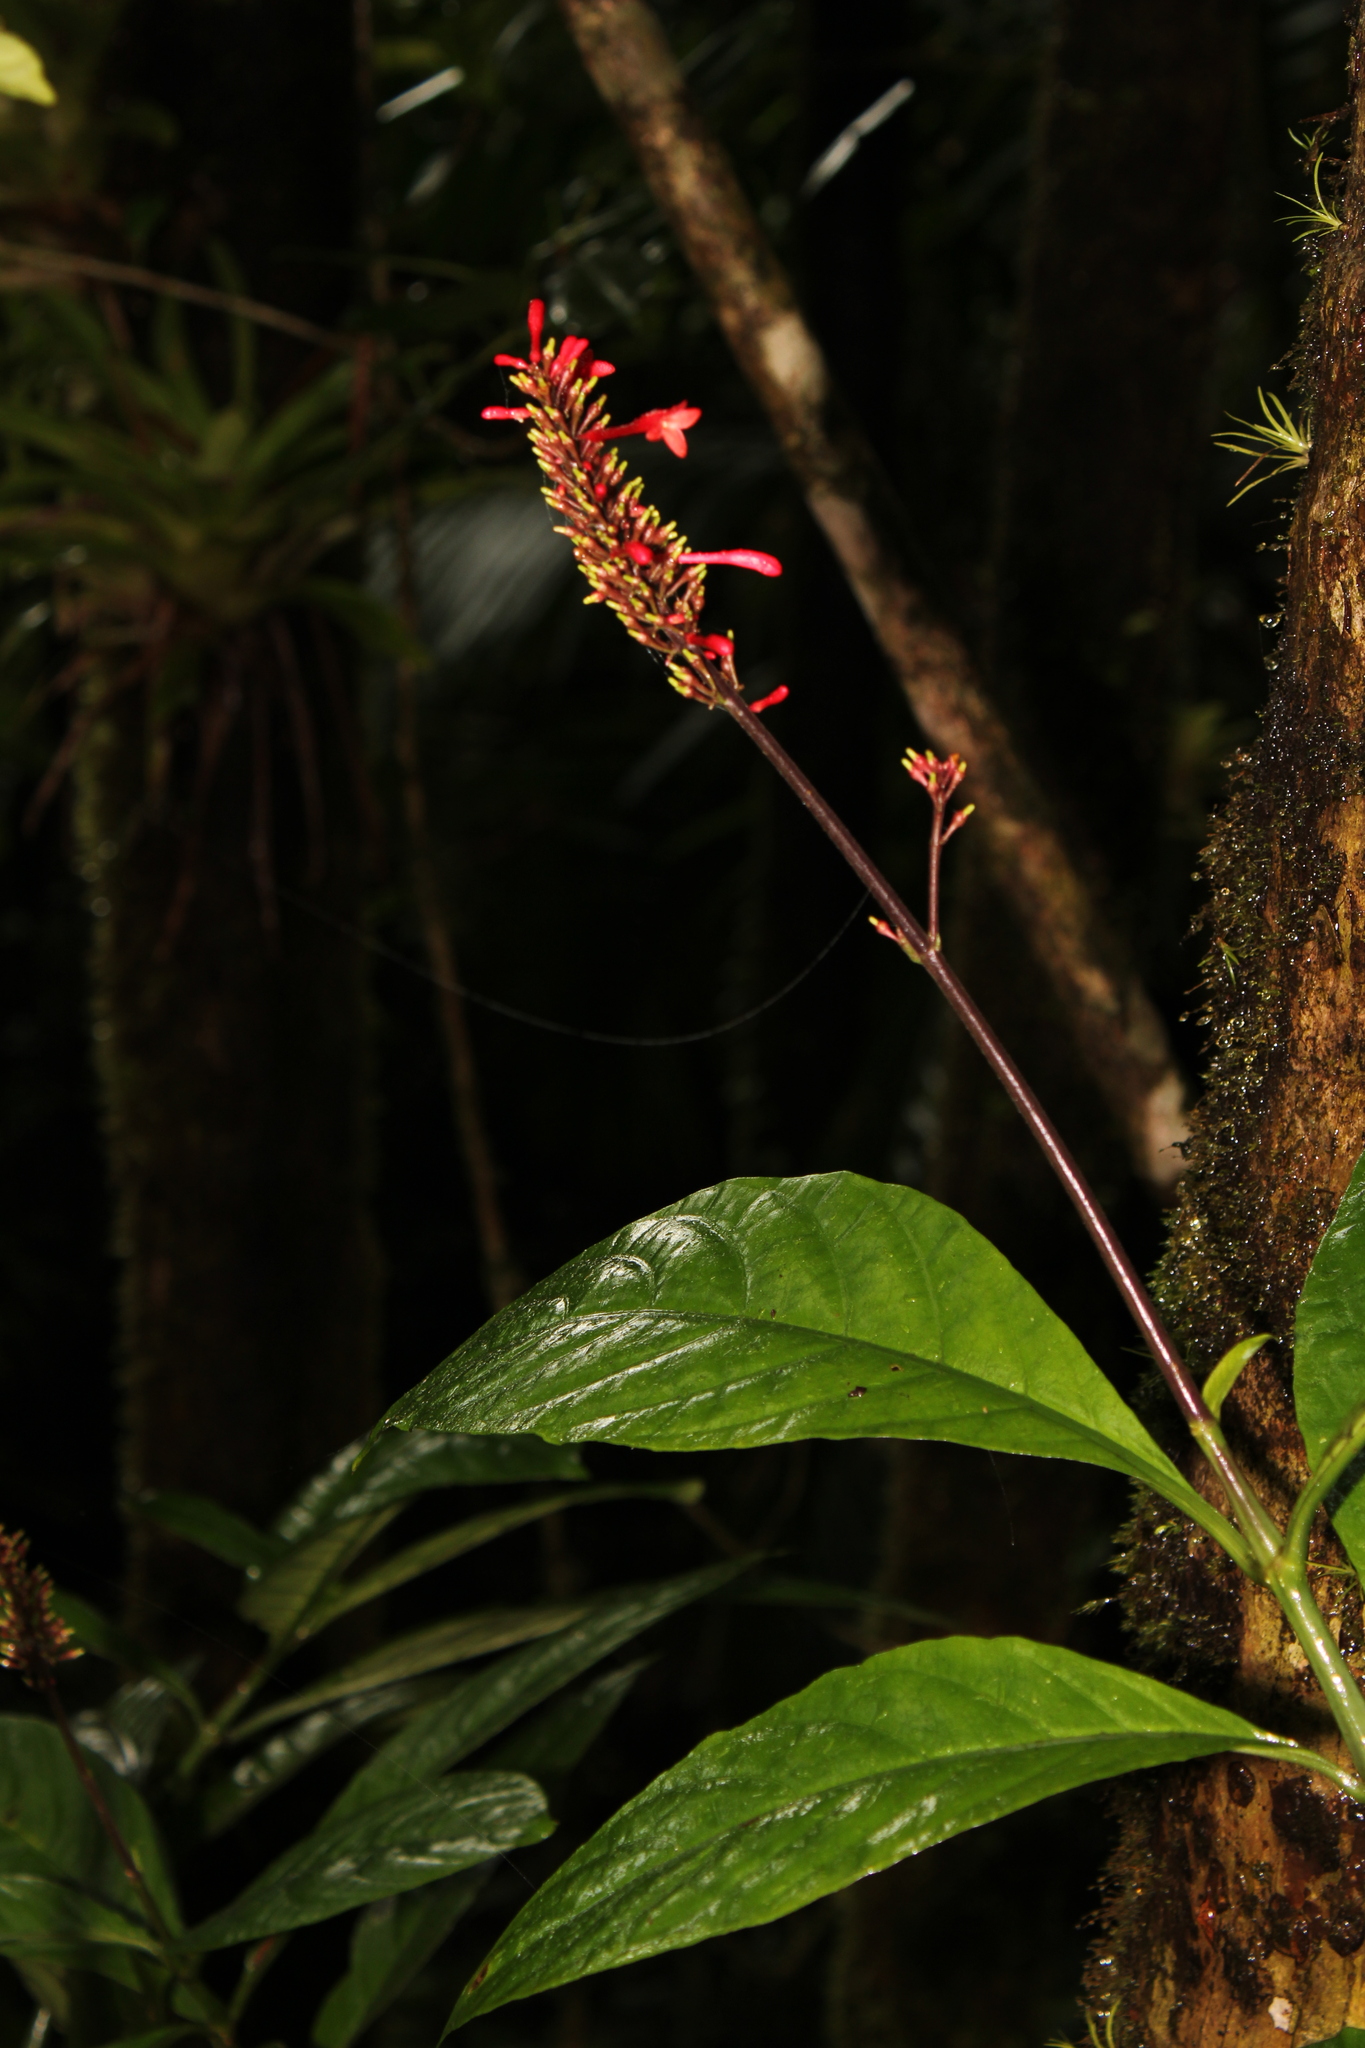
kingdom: Plantae
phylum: Tracheophyta
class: Magnoliopsida
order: Lamiales
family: Acanthaceae
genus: Odontonema
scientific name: Odontonema cuspidatum
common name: Mottled toothedthread
